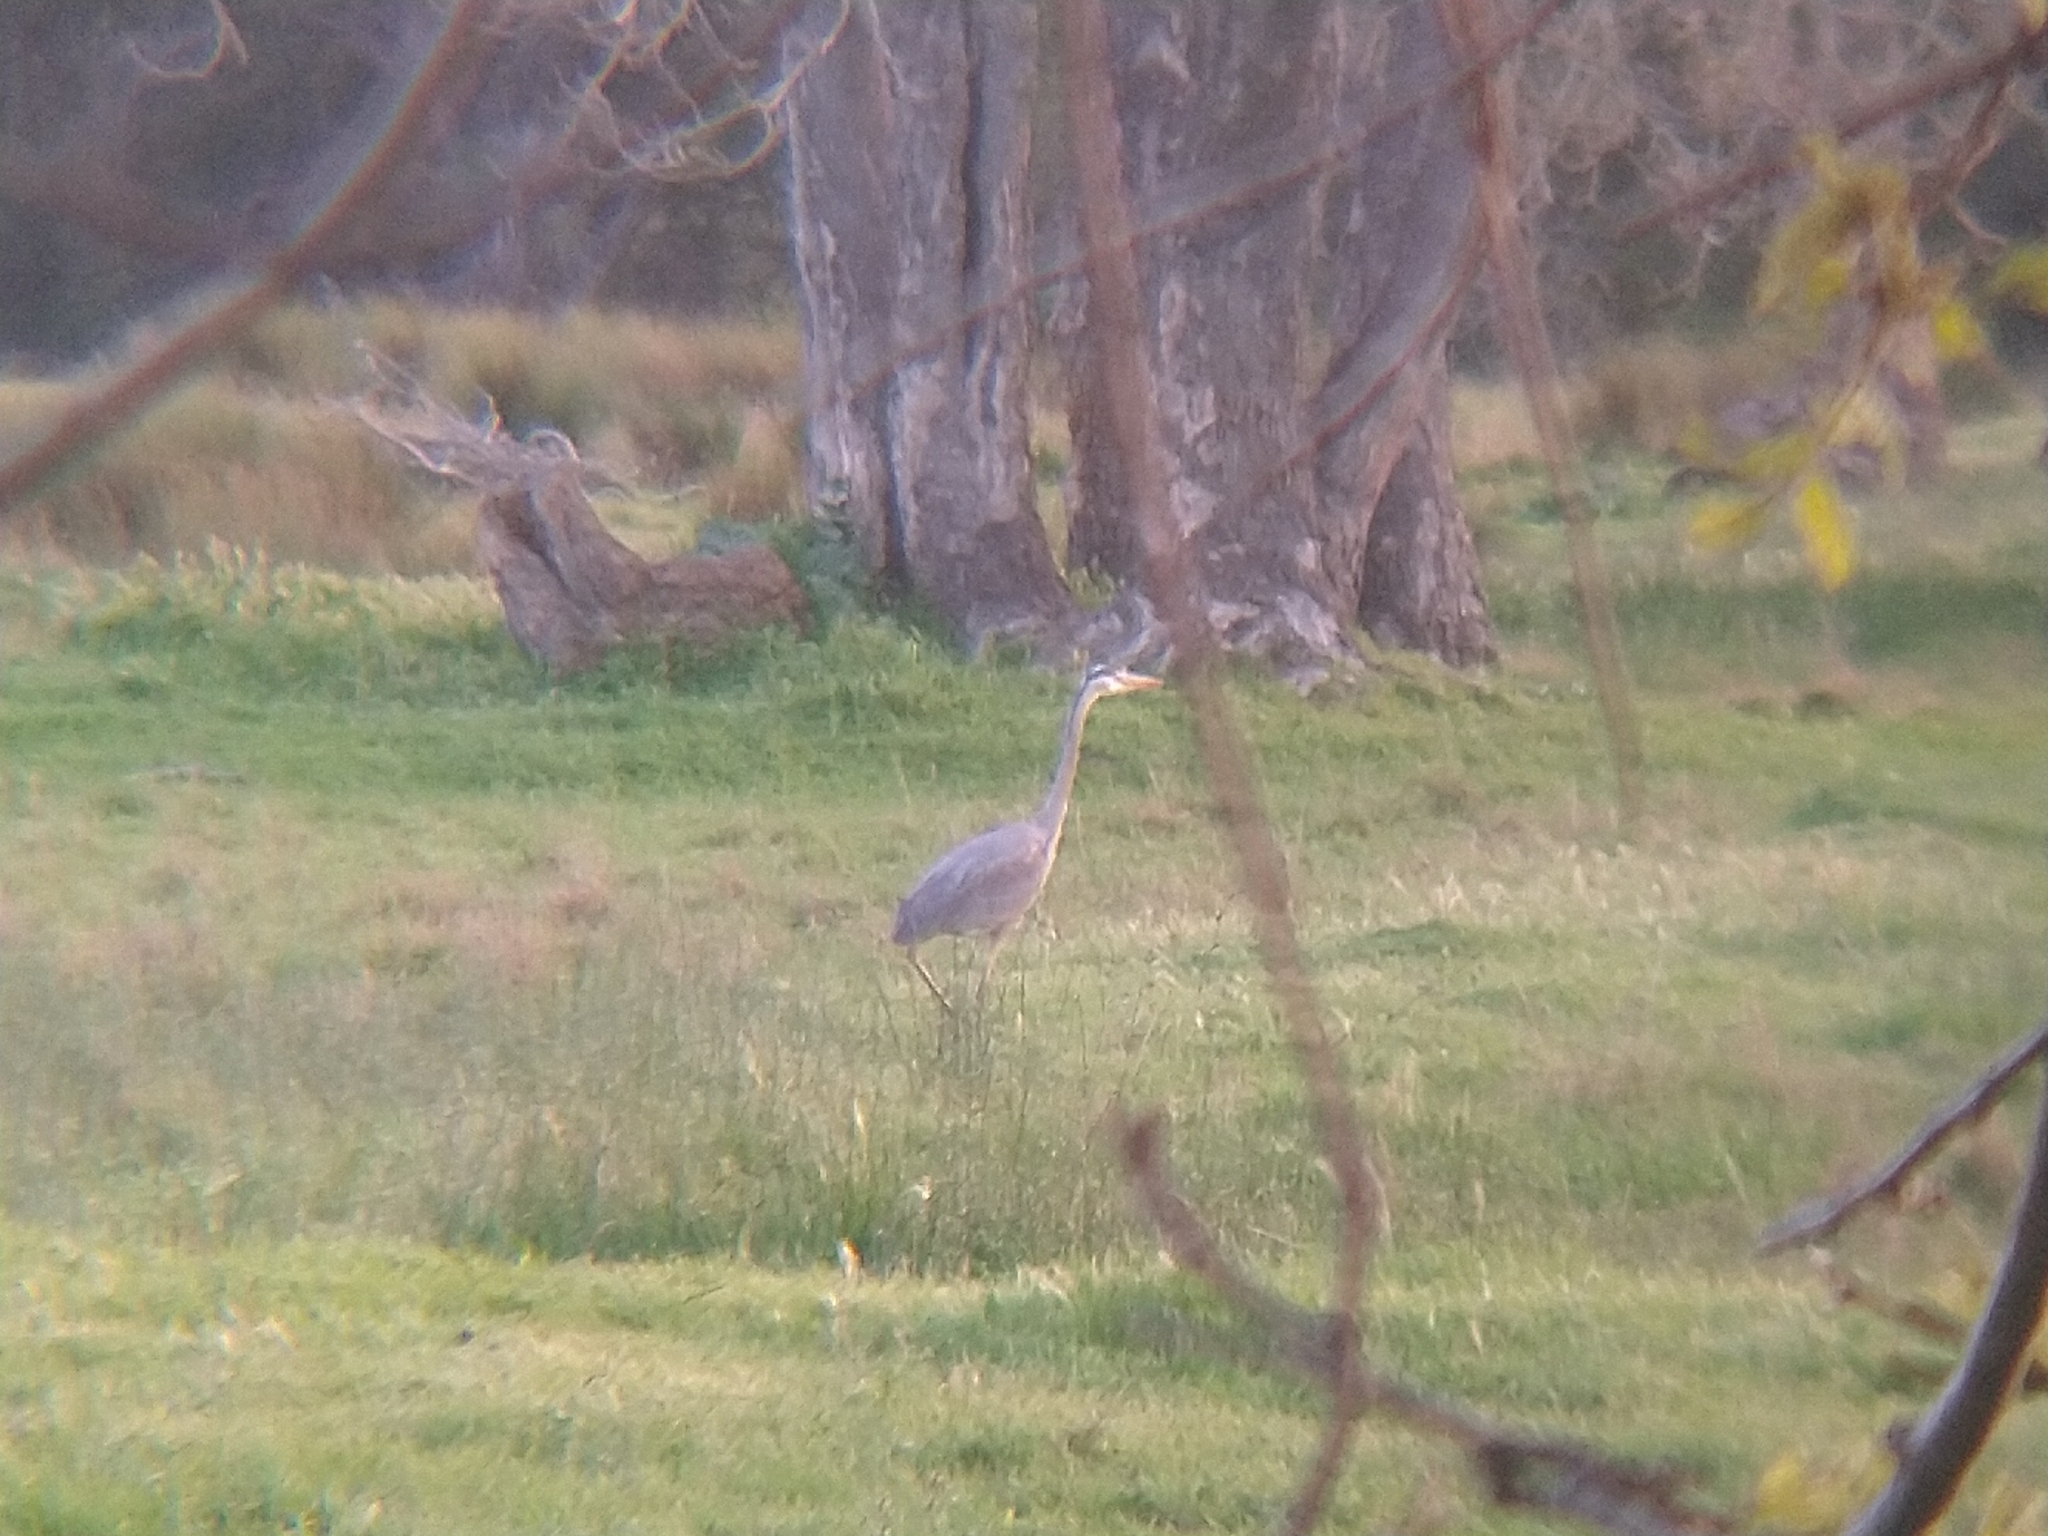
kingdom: Animalia
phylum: Chordata
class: Aves
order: Pelecaniformes
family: Ardeidae
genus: Ardea
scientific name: Ardea herodias
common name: Great blue heron
